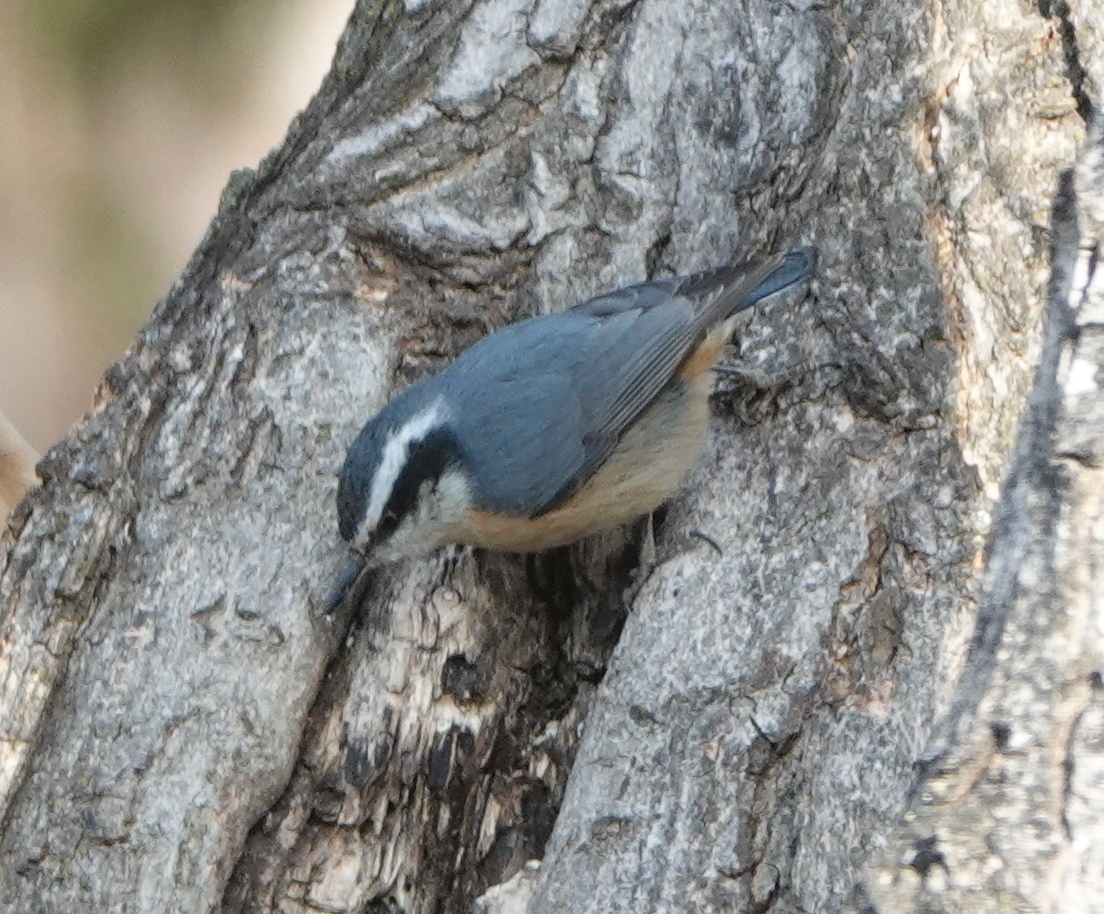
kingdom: Animalia
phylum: Chordata
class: Aves
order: Passeriformes
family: Sittidae
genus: Sitta
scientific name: Sitta canadensis
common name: Red-breasted nuthatch
